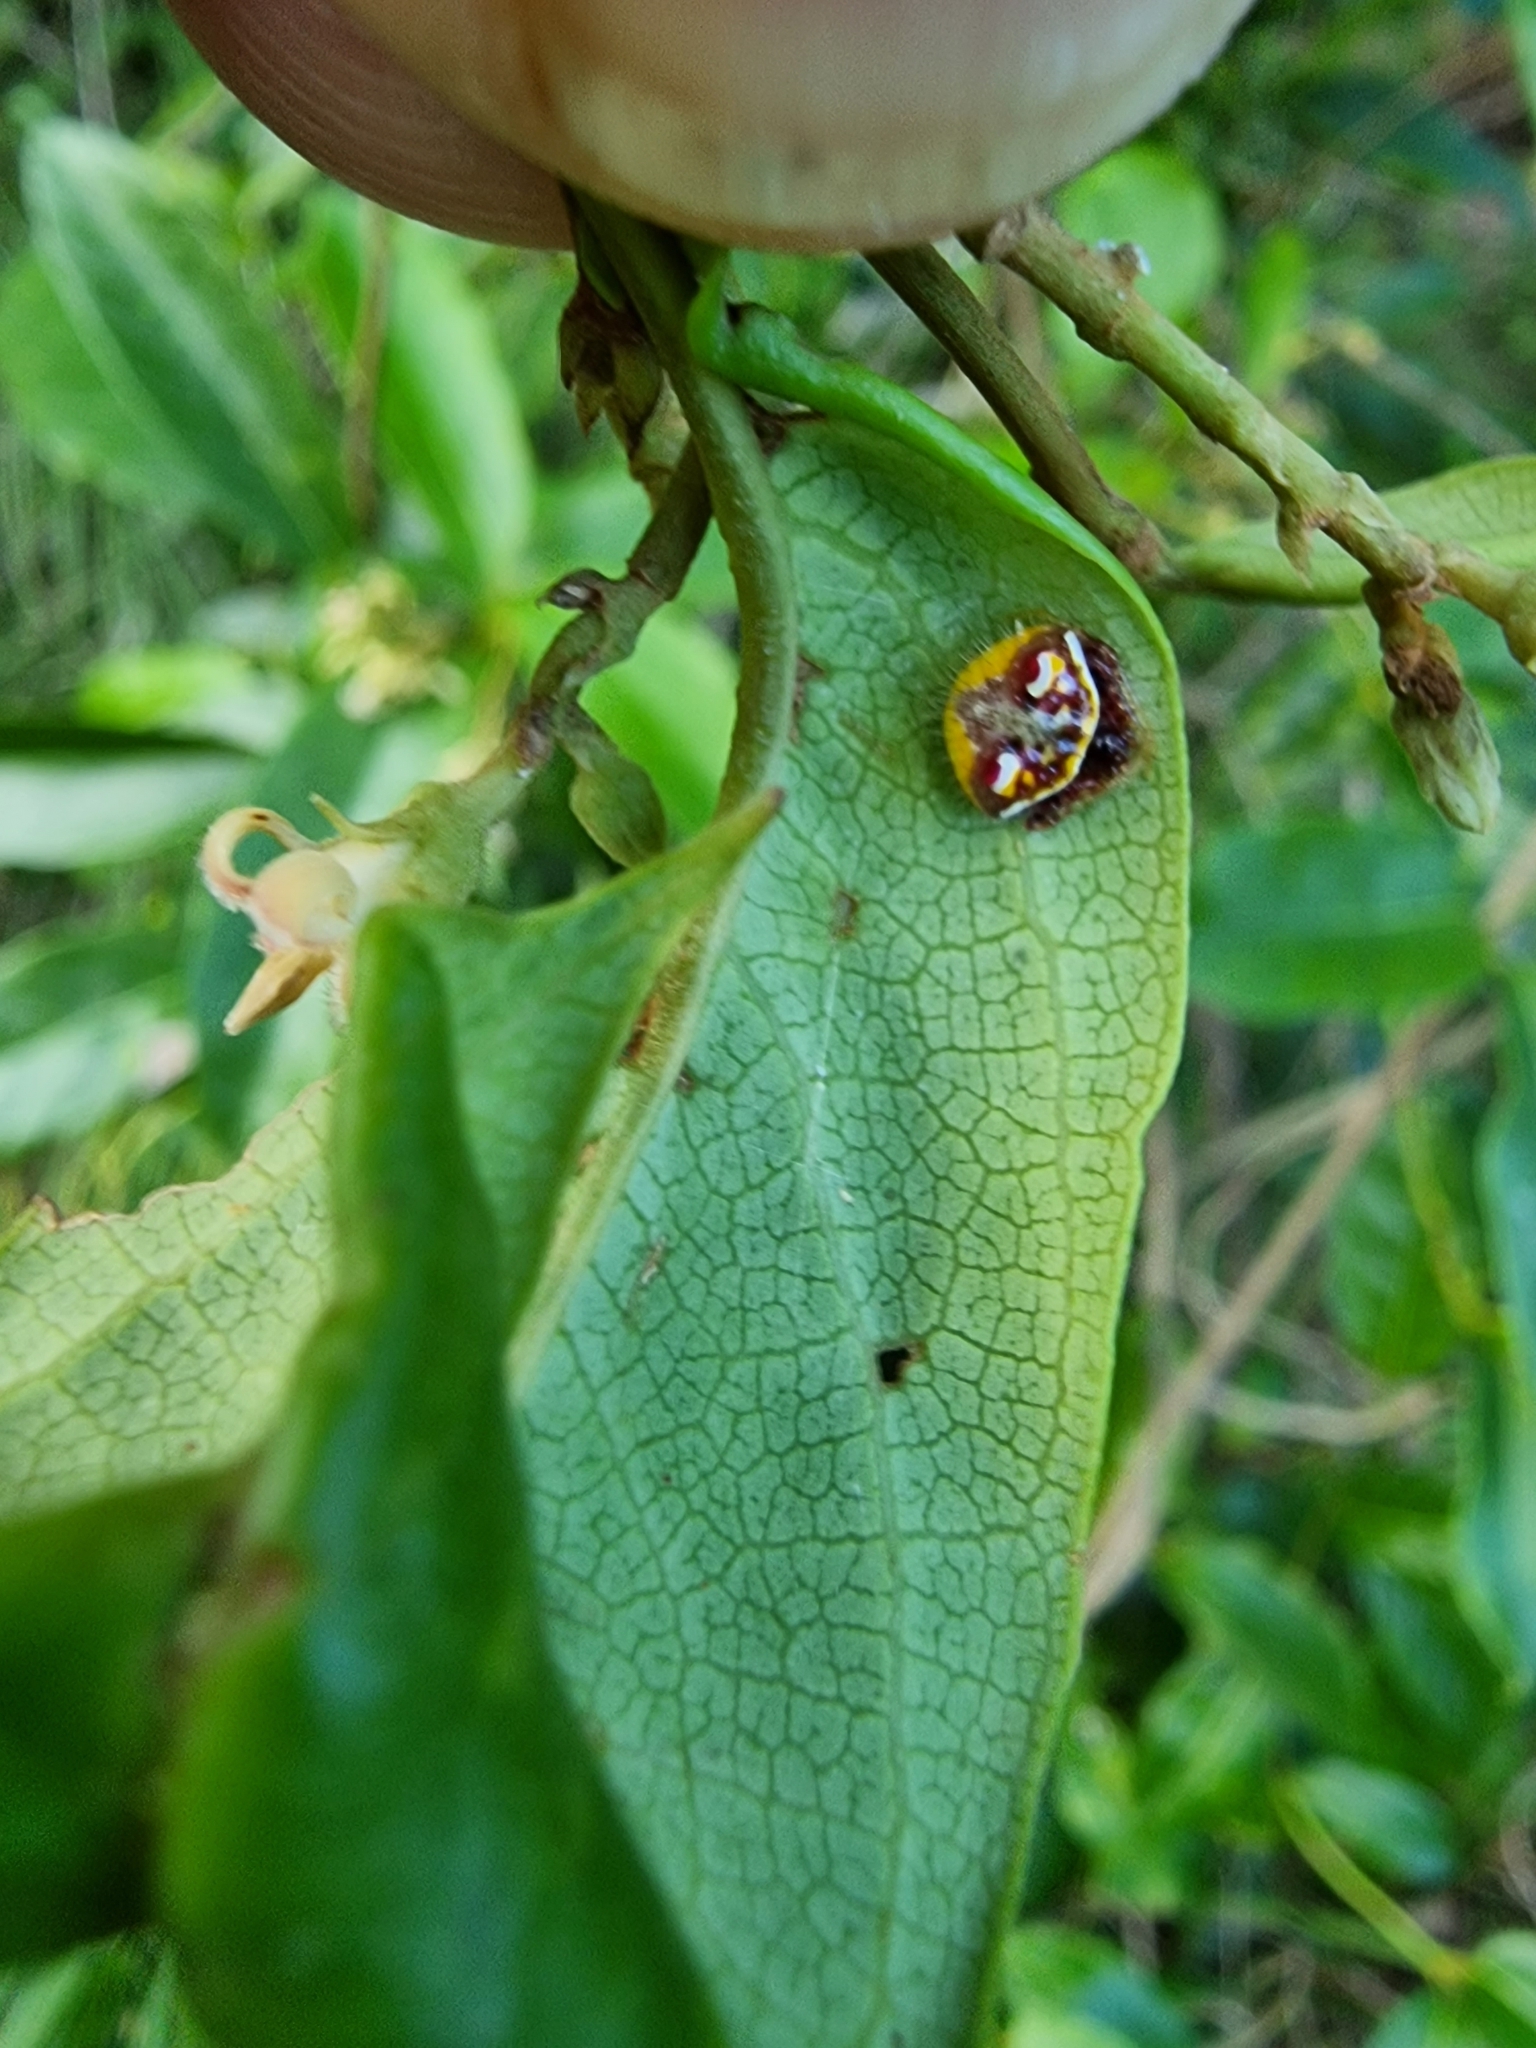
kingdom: Animalia
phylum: Arthropoda
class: Arachnida
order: Araneae
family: Araneidae
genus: Poecilopachys
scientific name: Poecilopachys australasia
